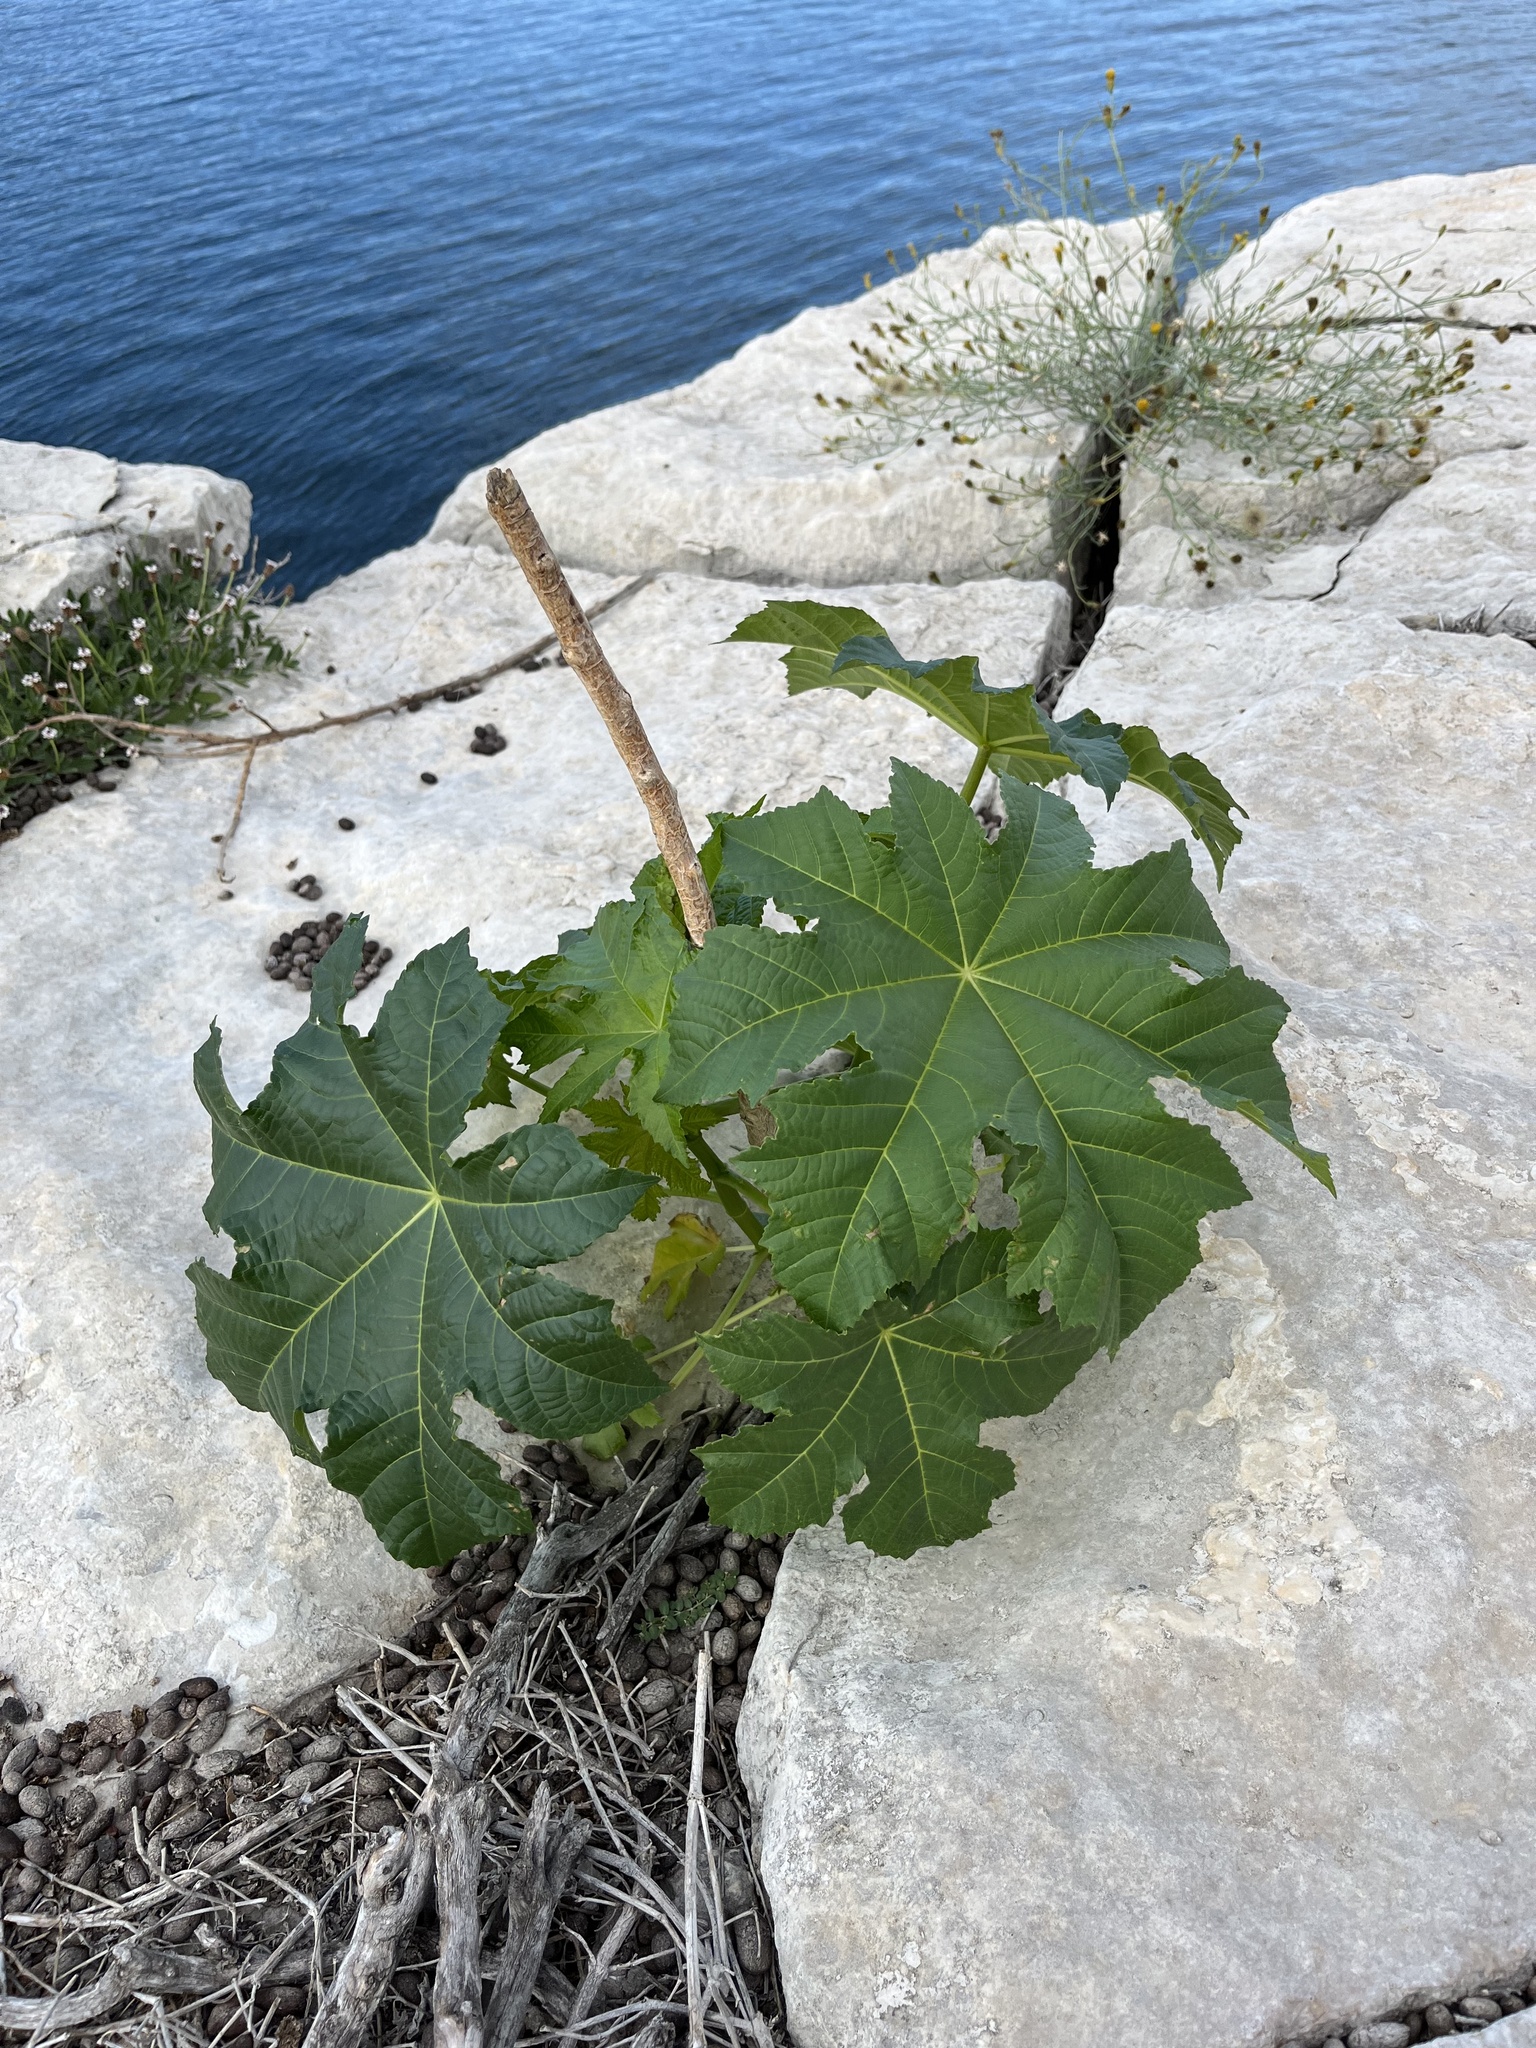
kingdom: Plantae
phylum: Tracheophyta
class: Magnoliopsida
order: Malpighiales
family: Euphorbiaceae
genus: Ricinus
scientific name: Ricinus communis
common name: Castor-oil-plant
